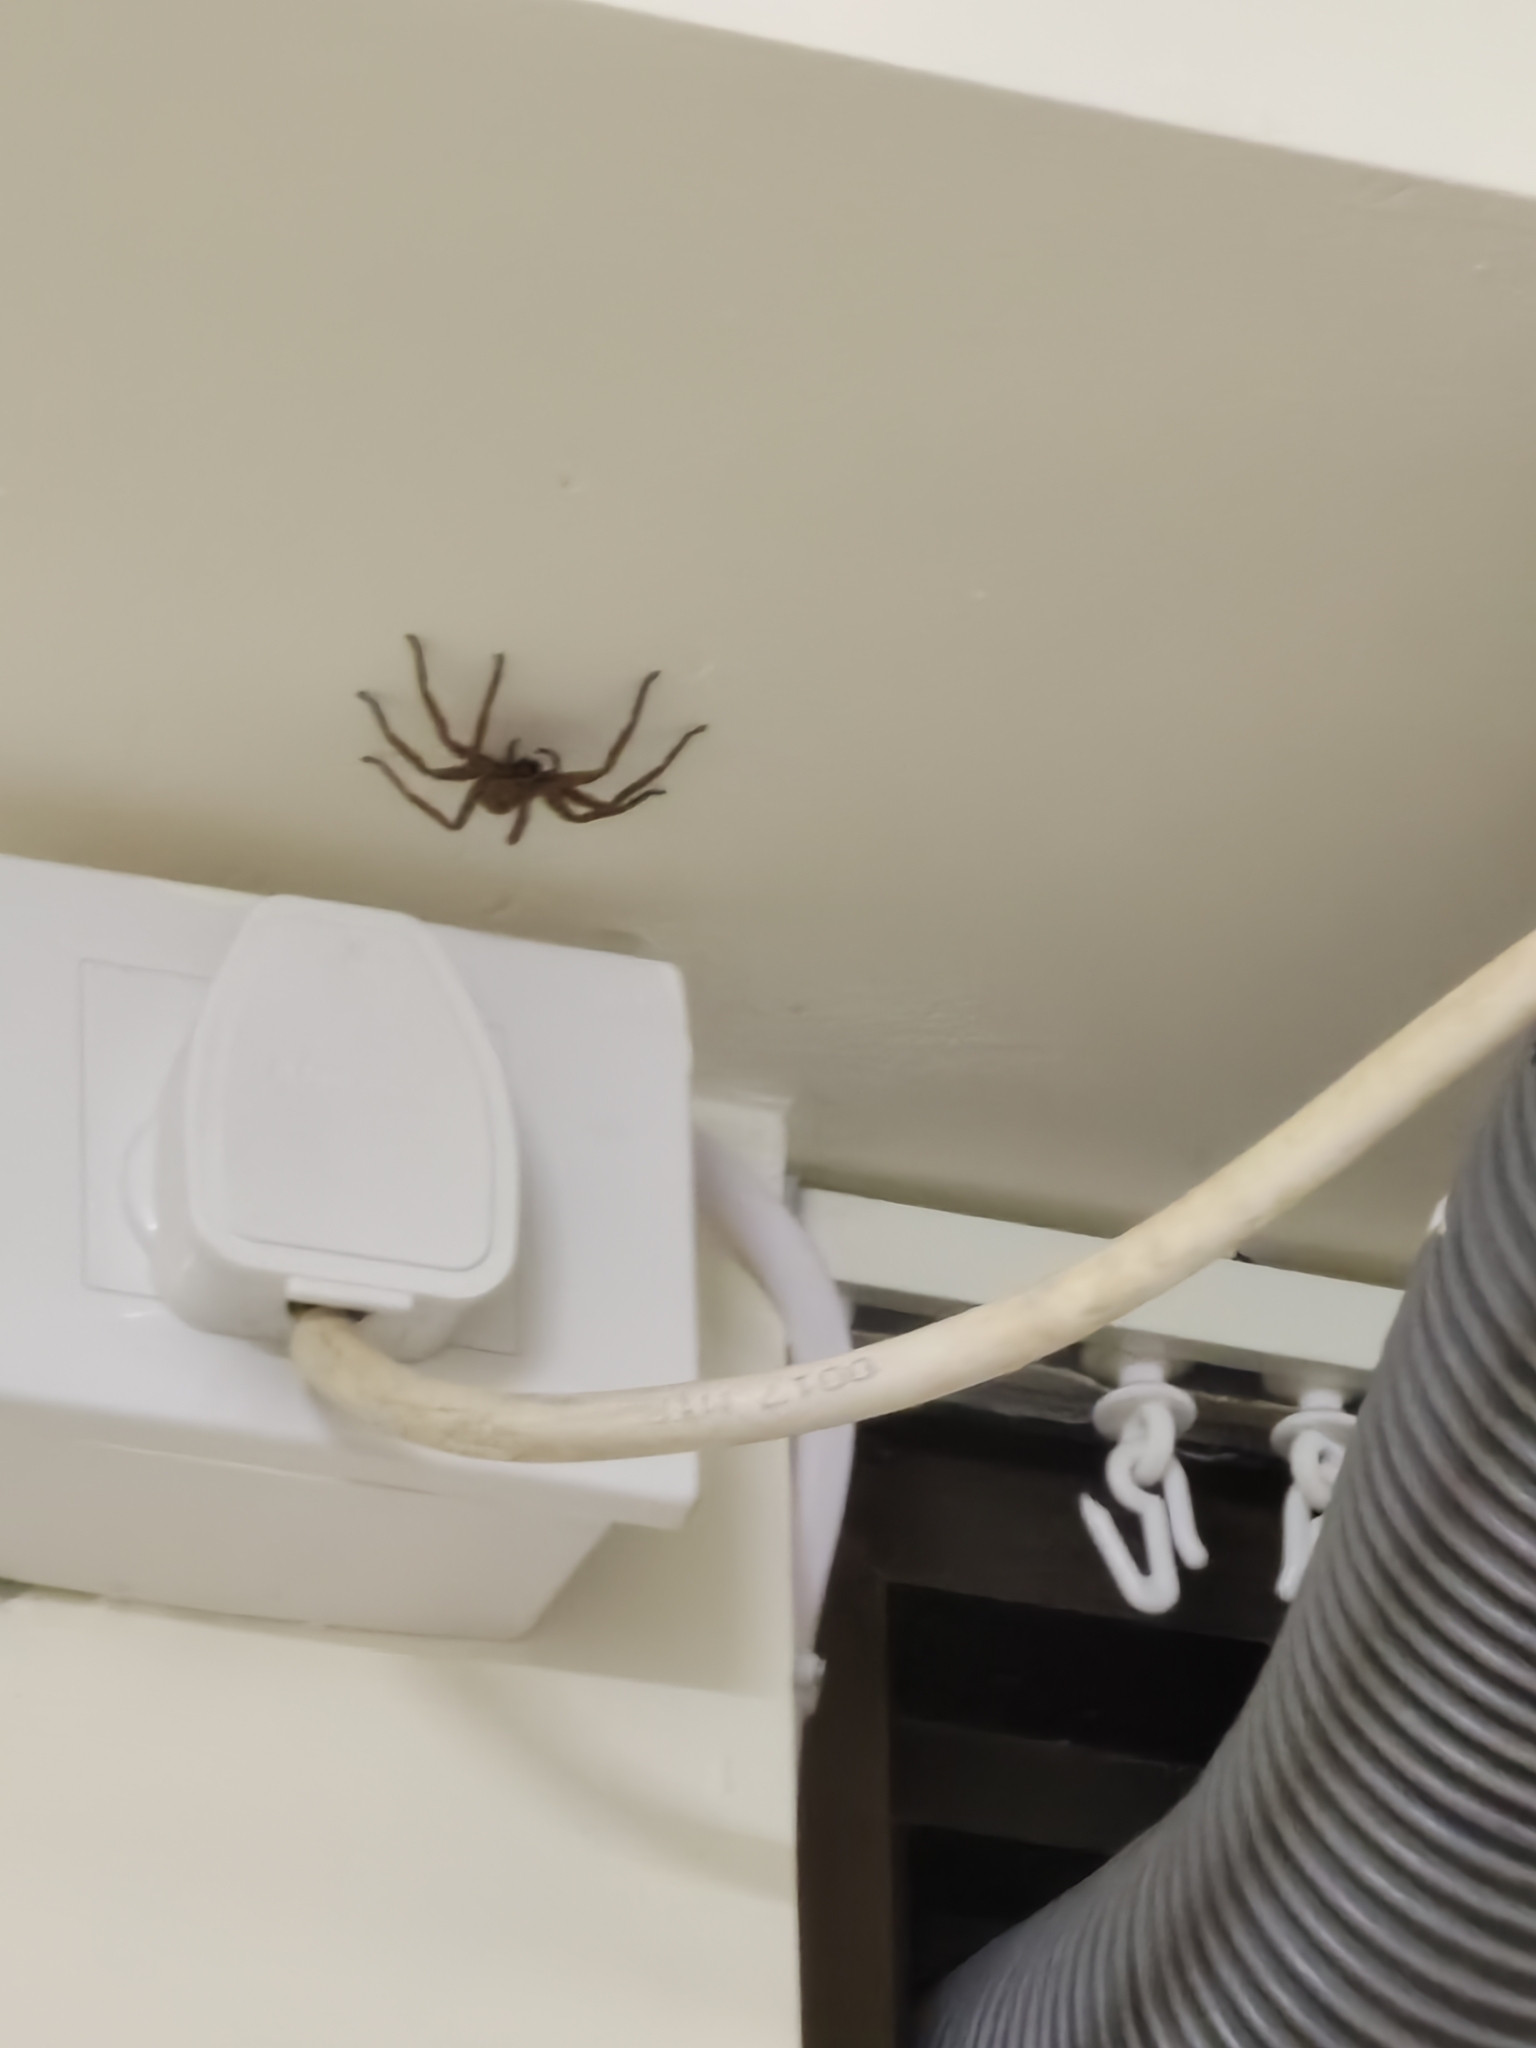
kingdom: Animalia
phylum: Arthropoda
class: Arachnida
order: Araneae
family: Sparassidae
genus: Heteropoda
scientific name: Heteropoda venatoria
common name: Huntsman spider
